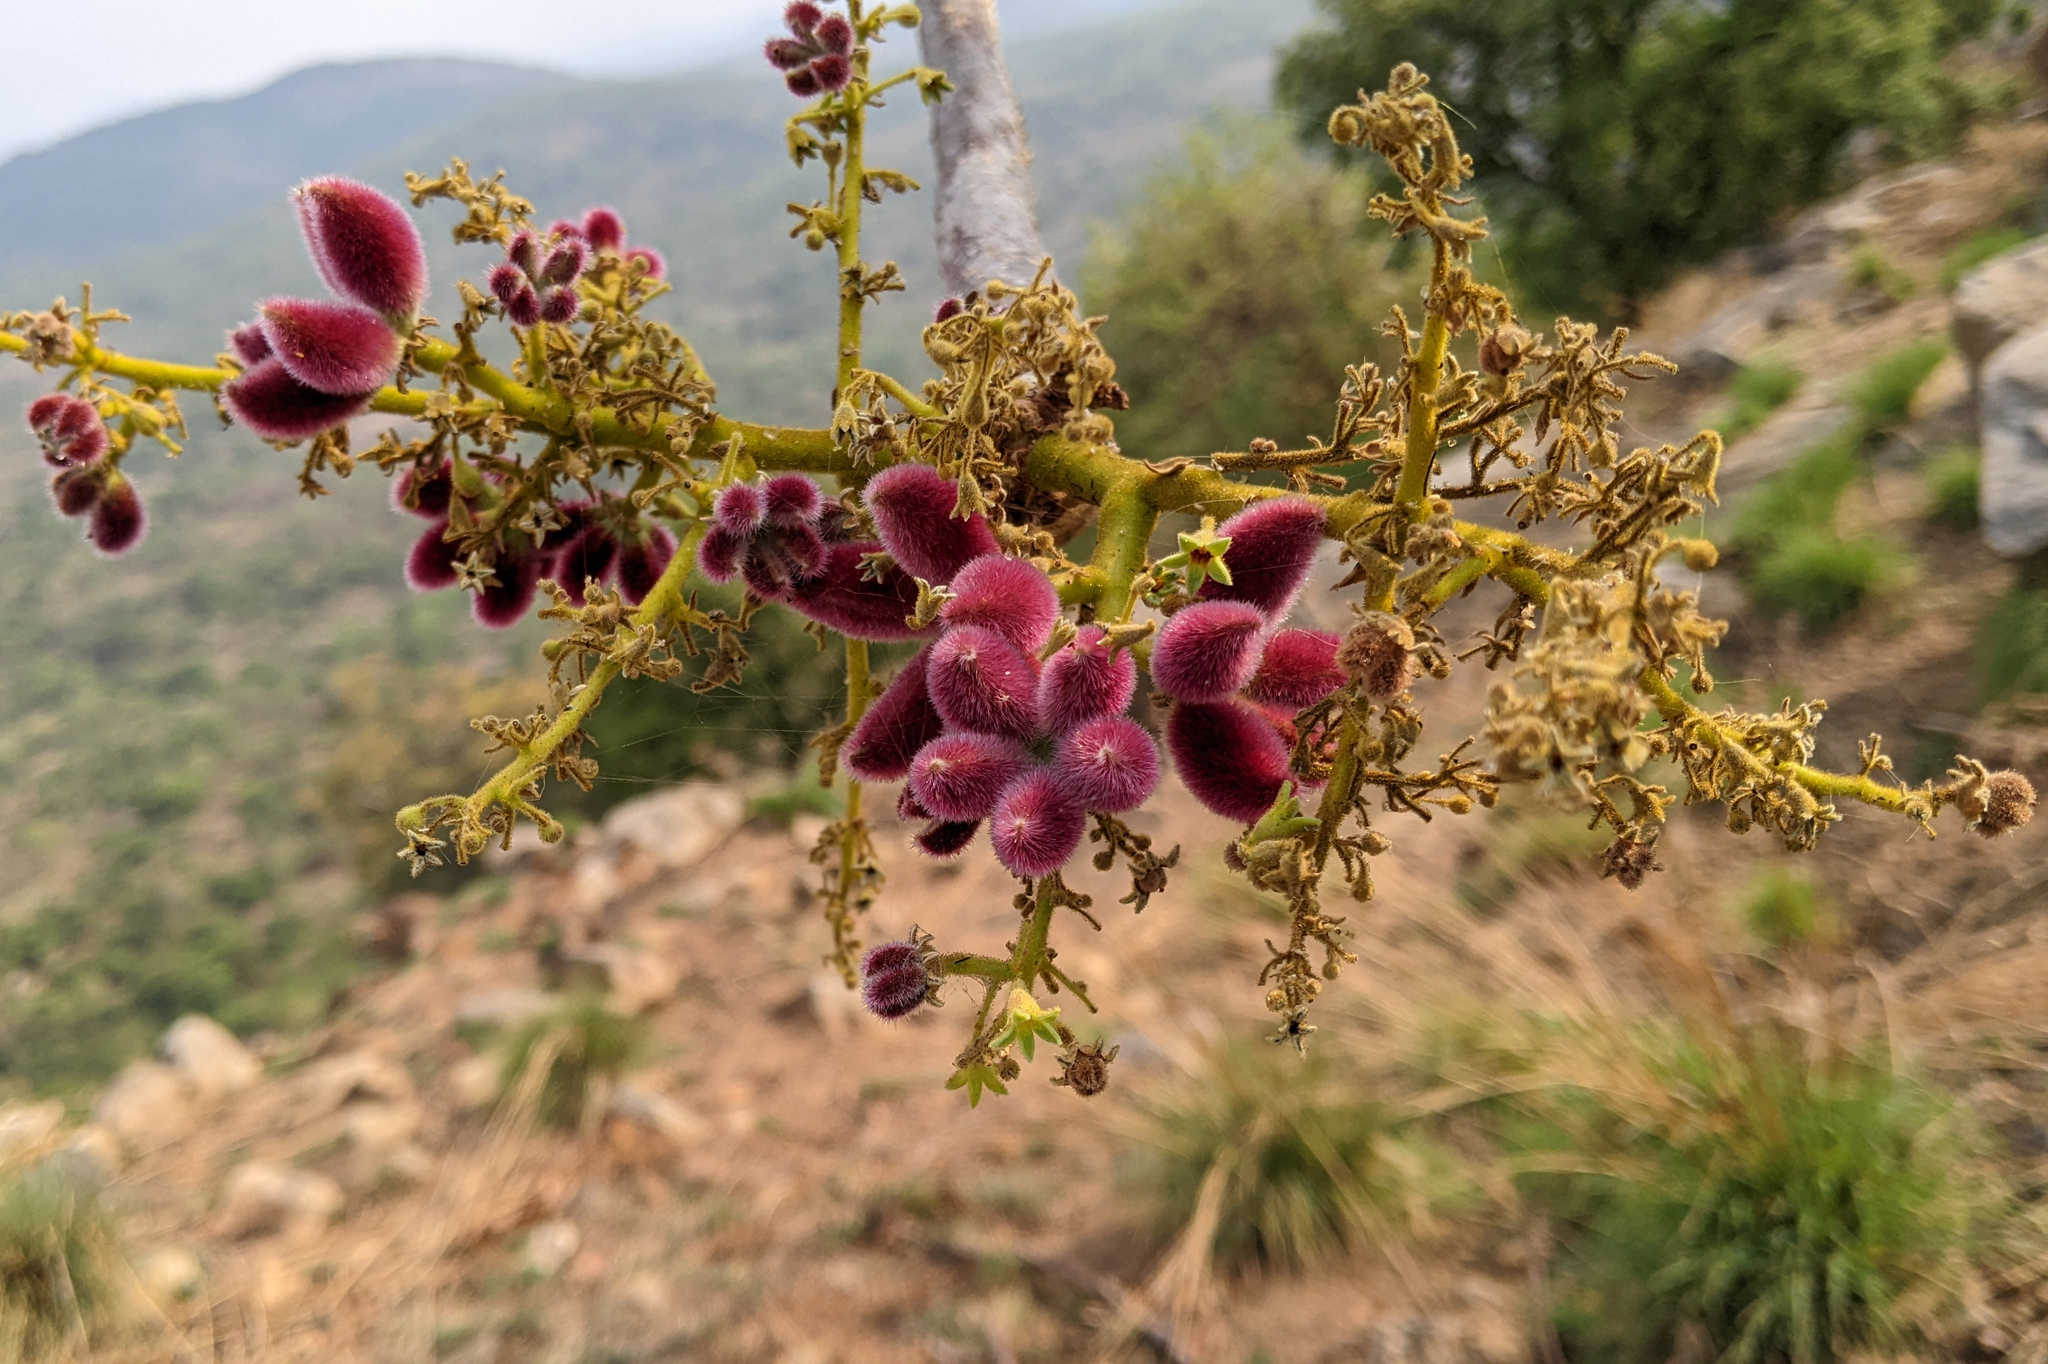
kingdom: Plantae
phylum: Tracheophyta
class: Magnoliopsida
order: Malvales
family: Malvaceae
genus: Sterculia
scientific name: Sterculia urens
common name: Indian-tragacanth
